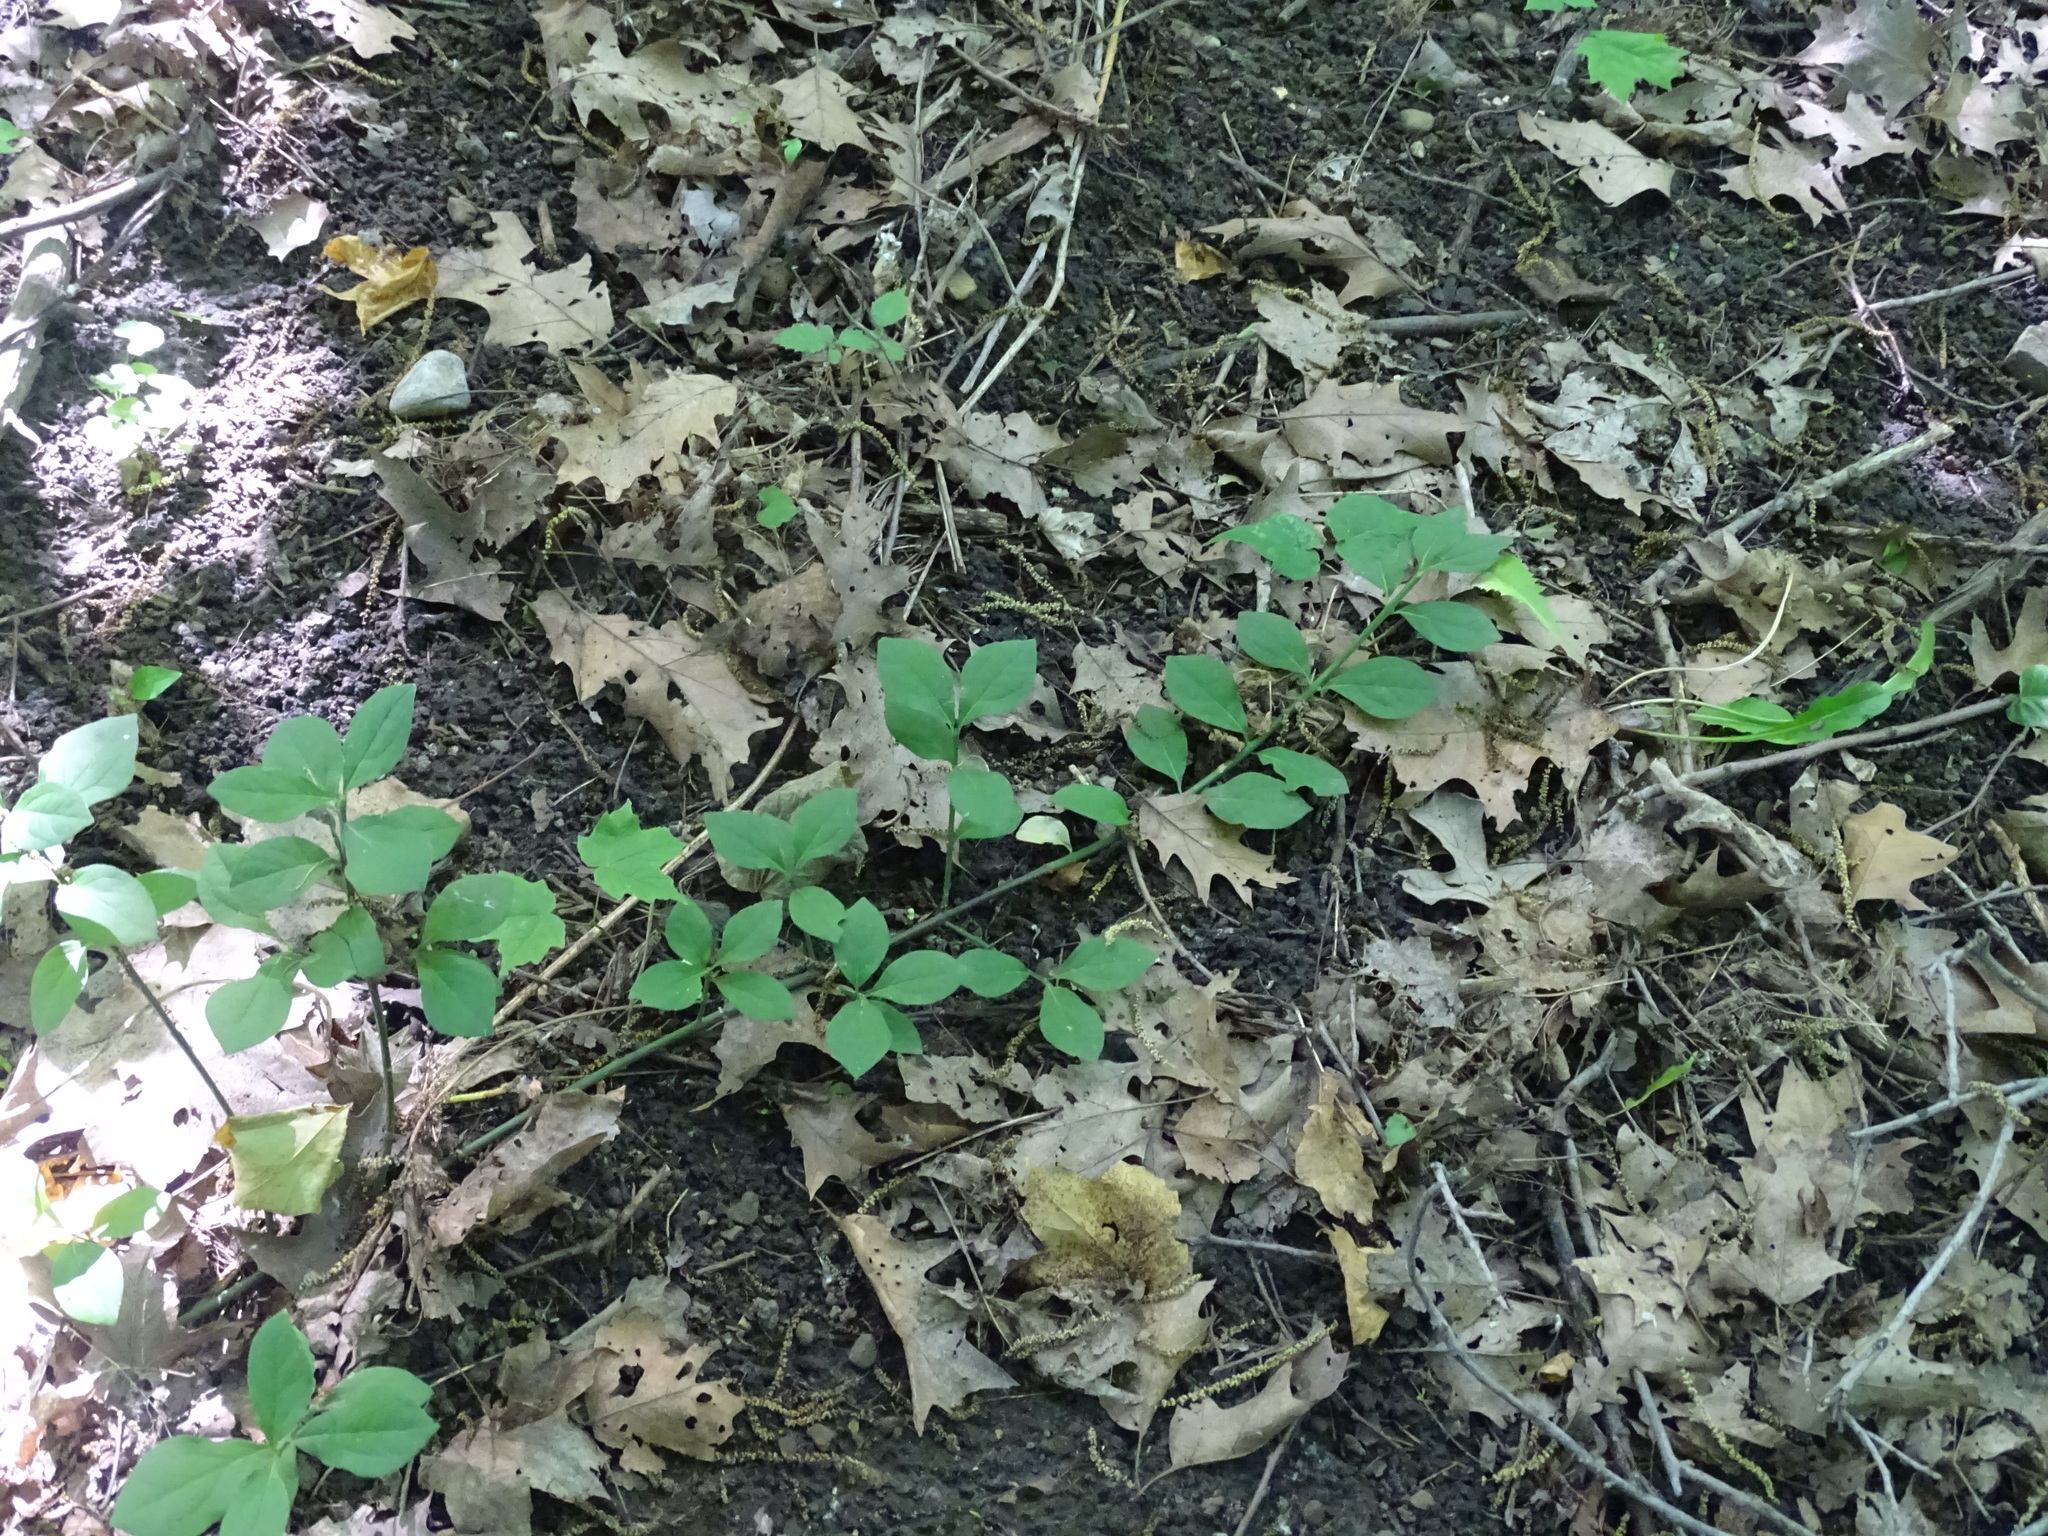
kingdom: Plantae
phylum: Tracheophyta
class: Magnoliopsida
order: Celastrales
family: Celastraceae
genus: Euonymus
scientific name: Euonymus obovatus
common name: Running strawberry-bush
